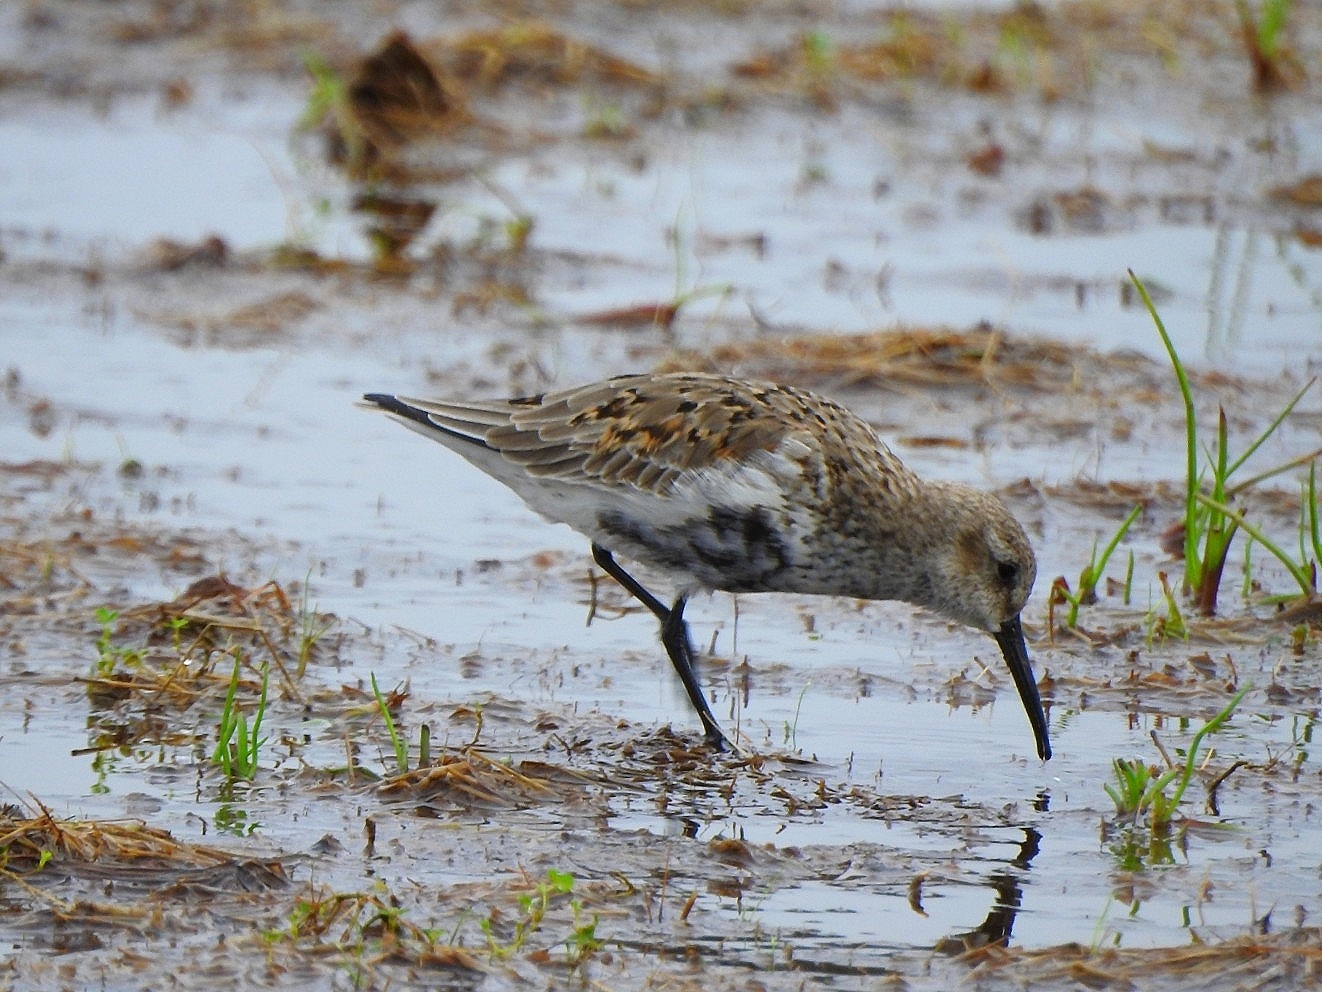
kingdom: Animalia
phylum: Chordata
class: Aves
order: Charadriiformes
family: Scolopacidae
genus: Calidris
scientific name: Calidris alpina
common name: Dunlin
